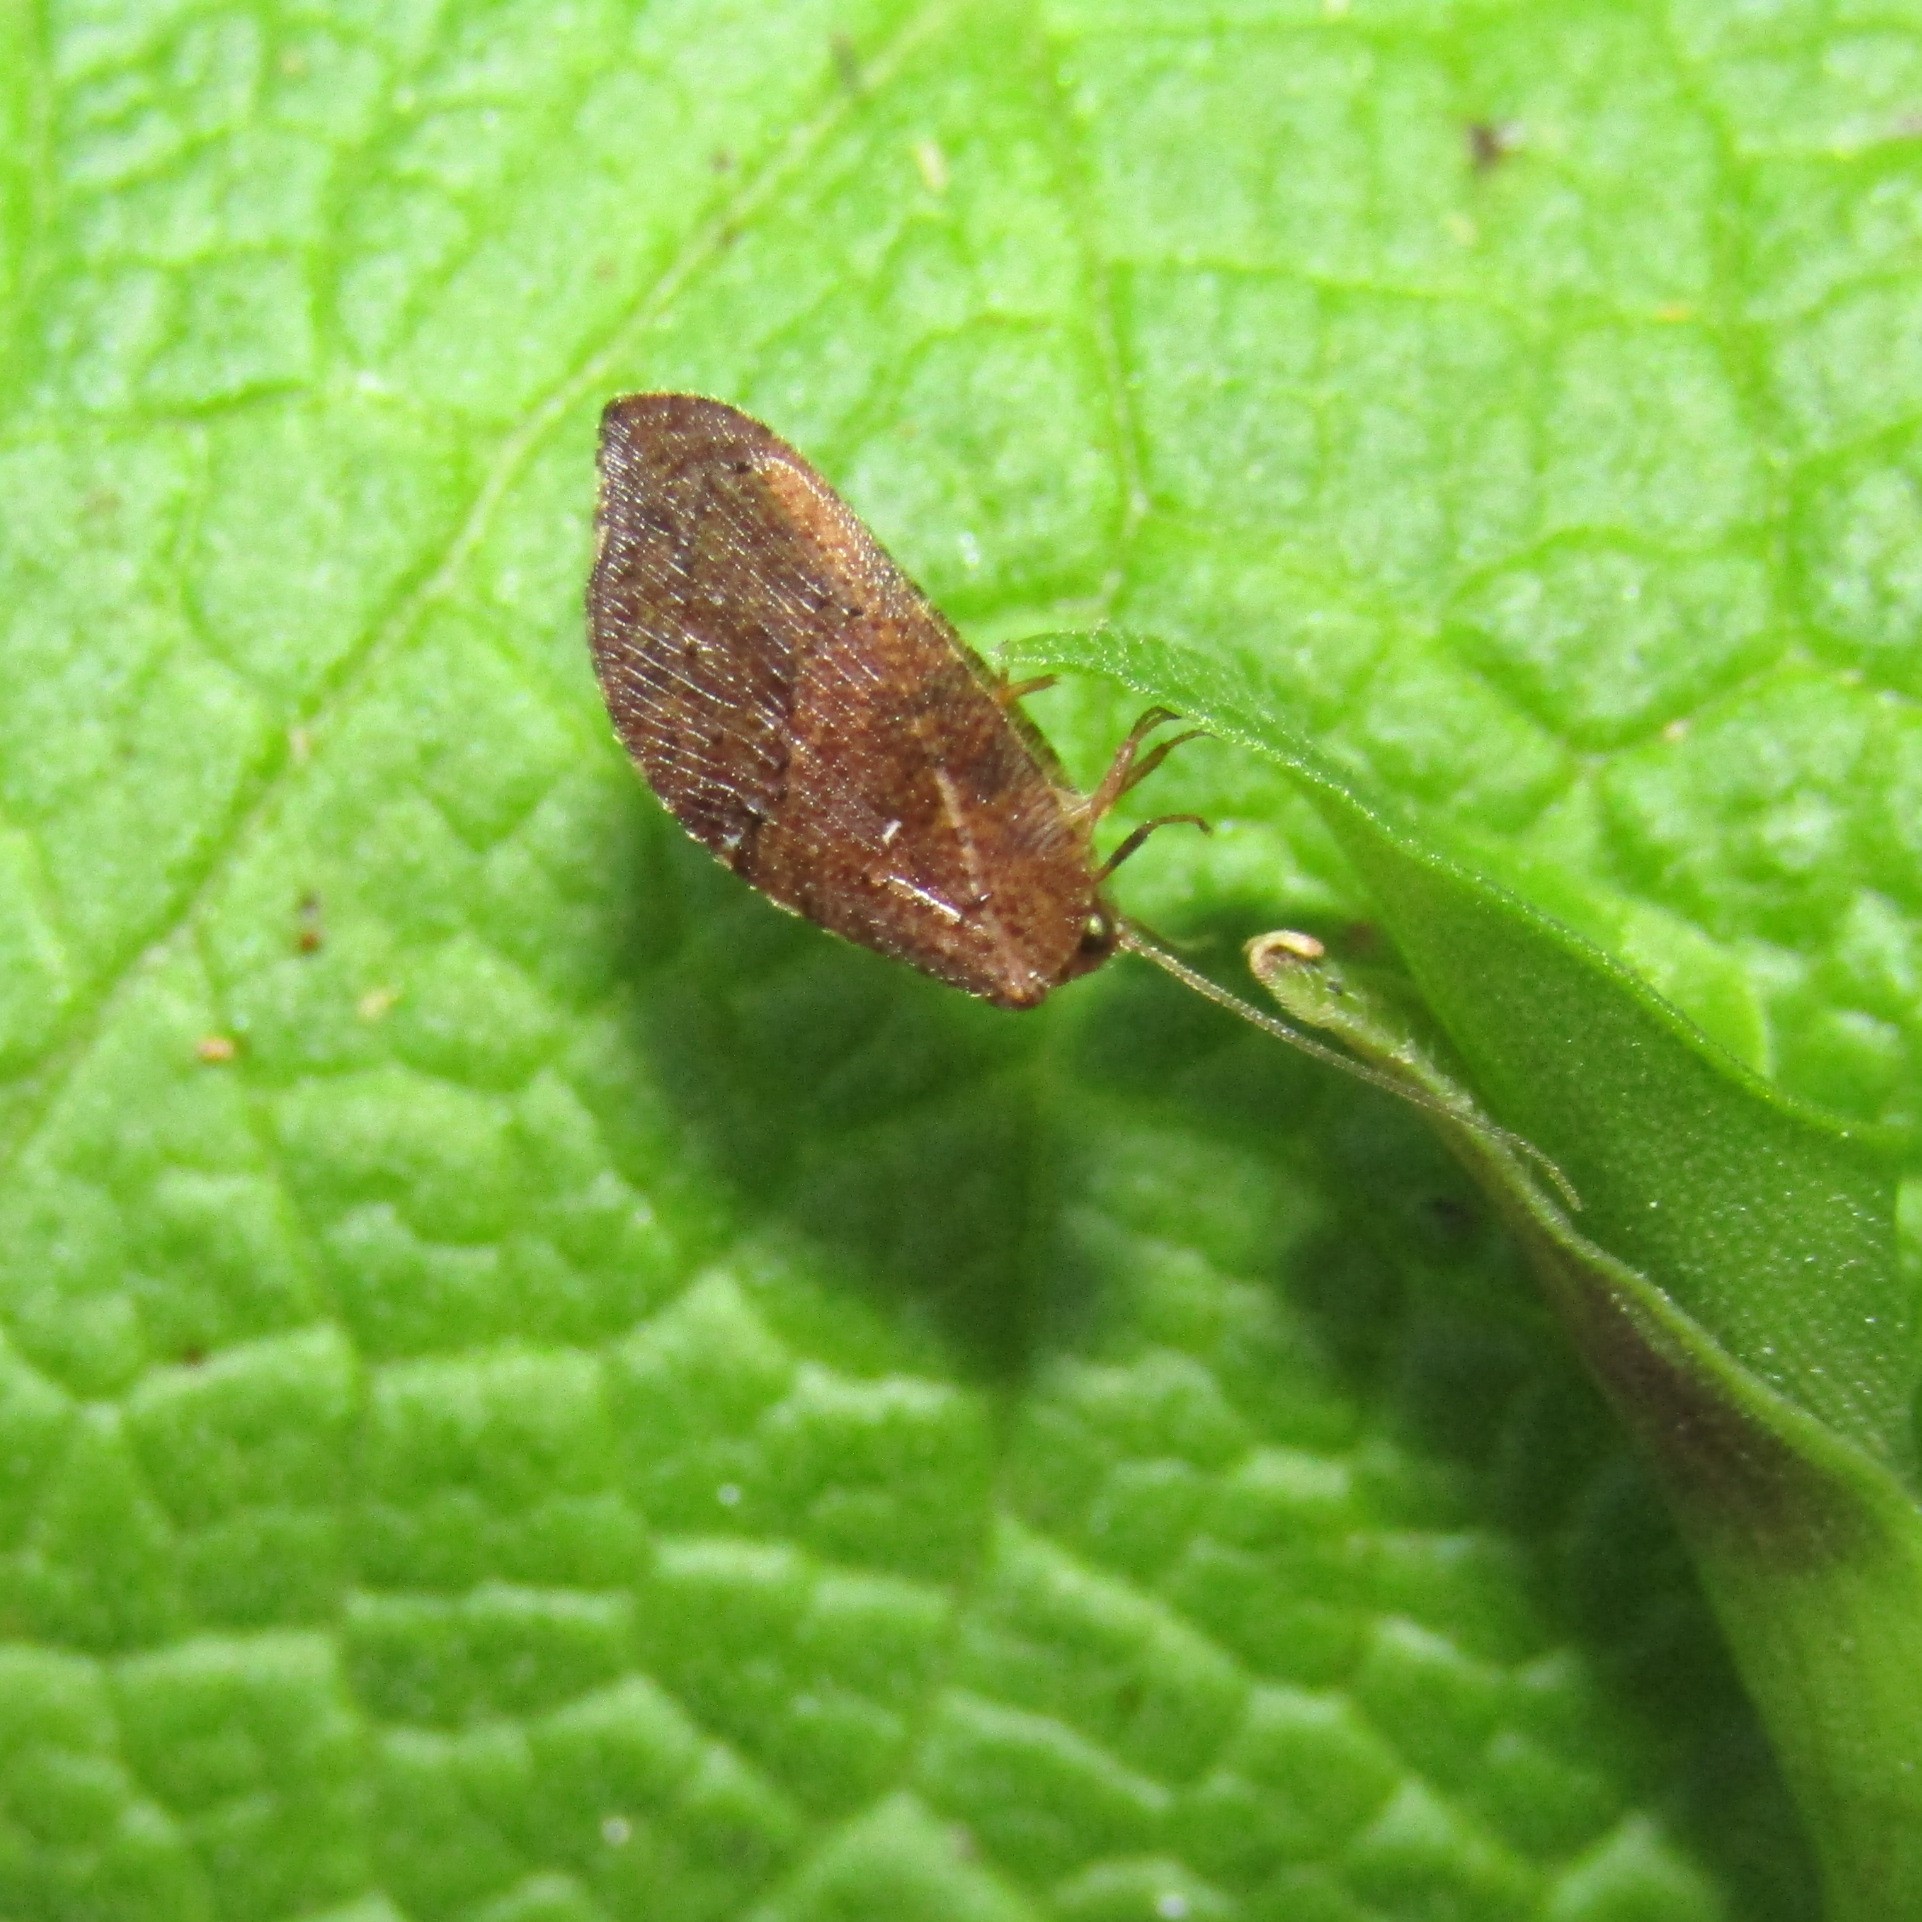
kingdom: Animalia
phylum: Arthropoda
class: Insecta
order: Neuroptera
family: Hemerobiidae
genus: Drepanacra
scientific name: Drepanacra binocula
